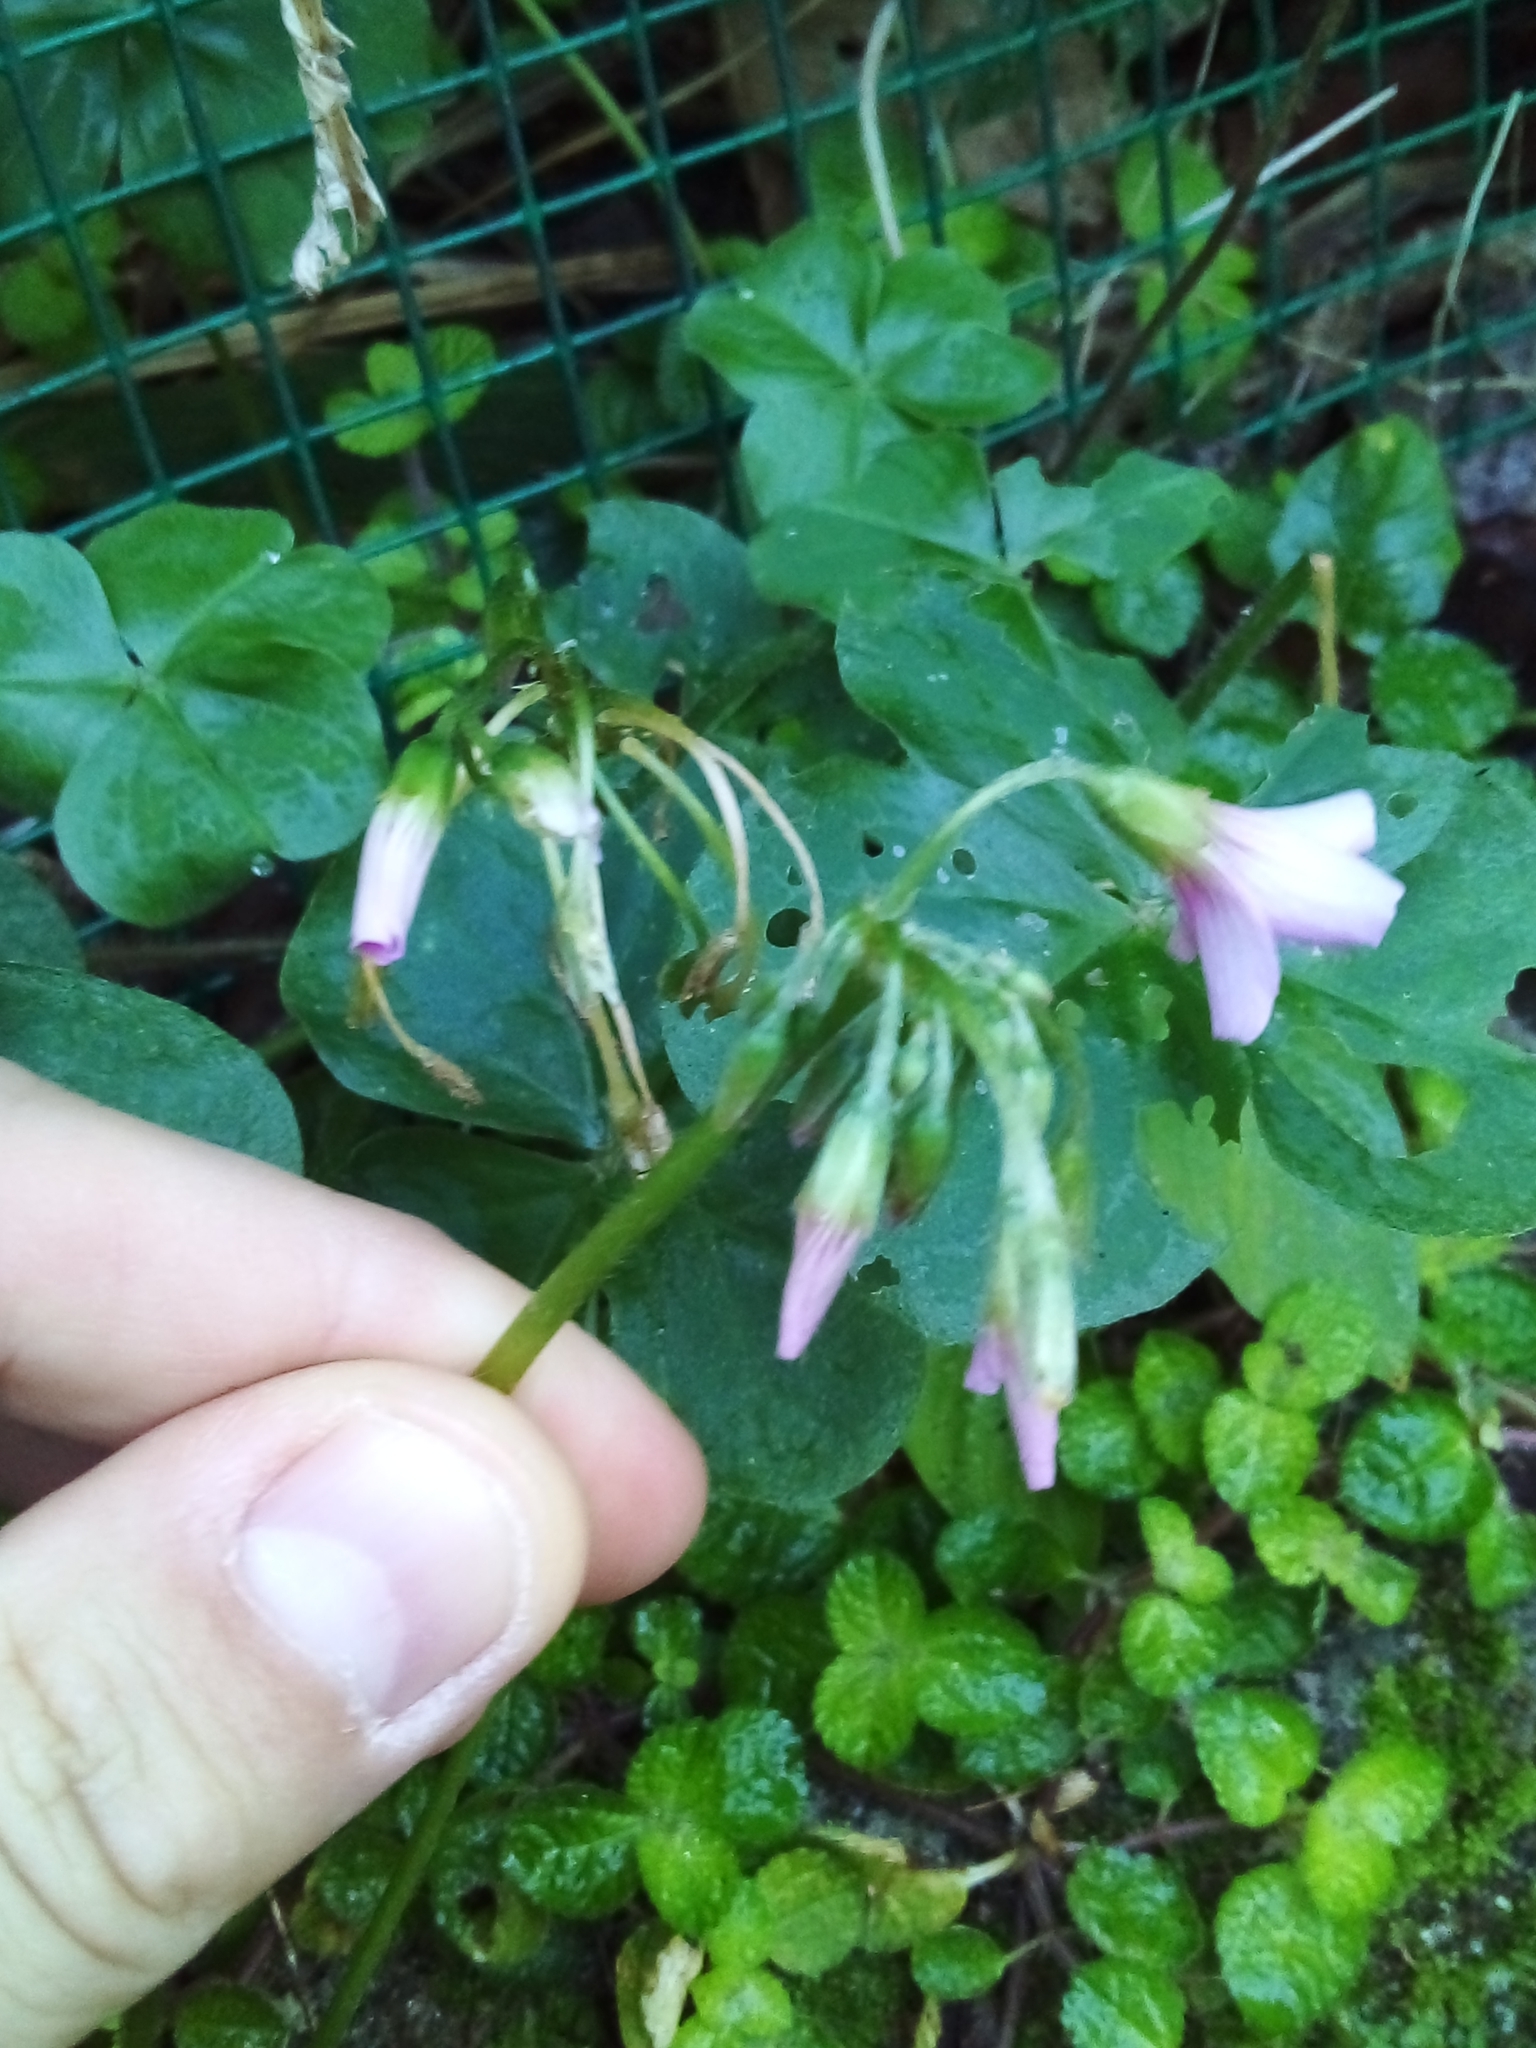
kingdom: Plantae
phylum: Tracheophyta
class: Magnoliopsida
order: Oxalidales
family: Oxalidaceae
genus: Oxalis
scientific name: Oxalis debilis
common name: Large-flowered pink-sorrel
